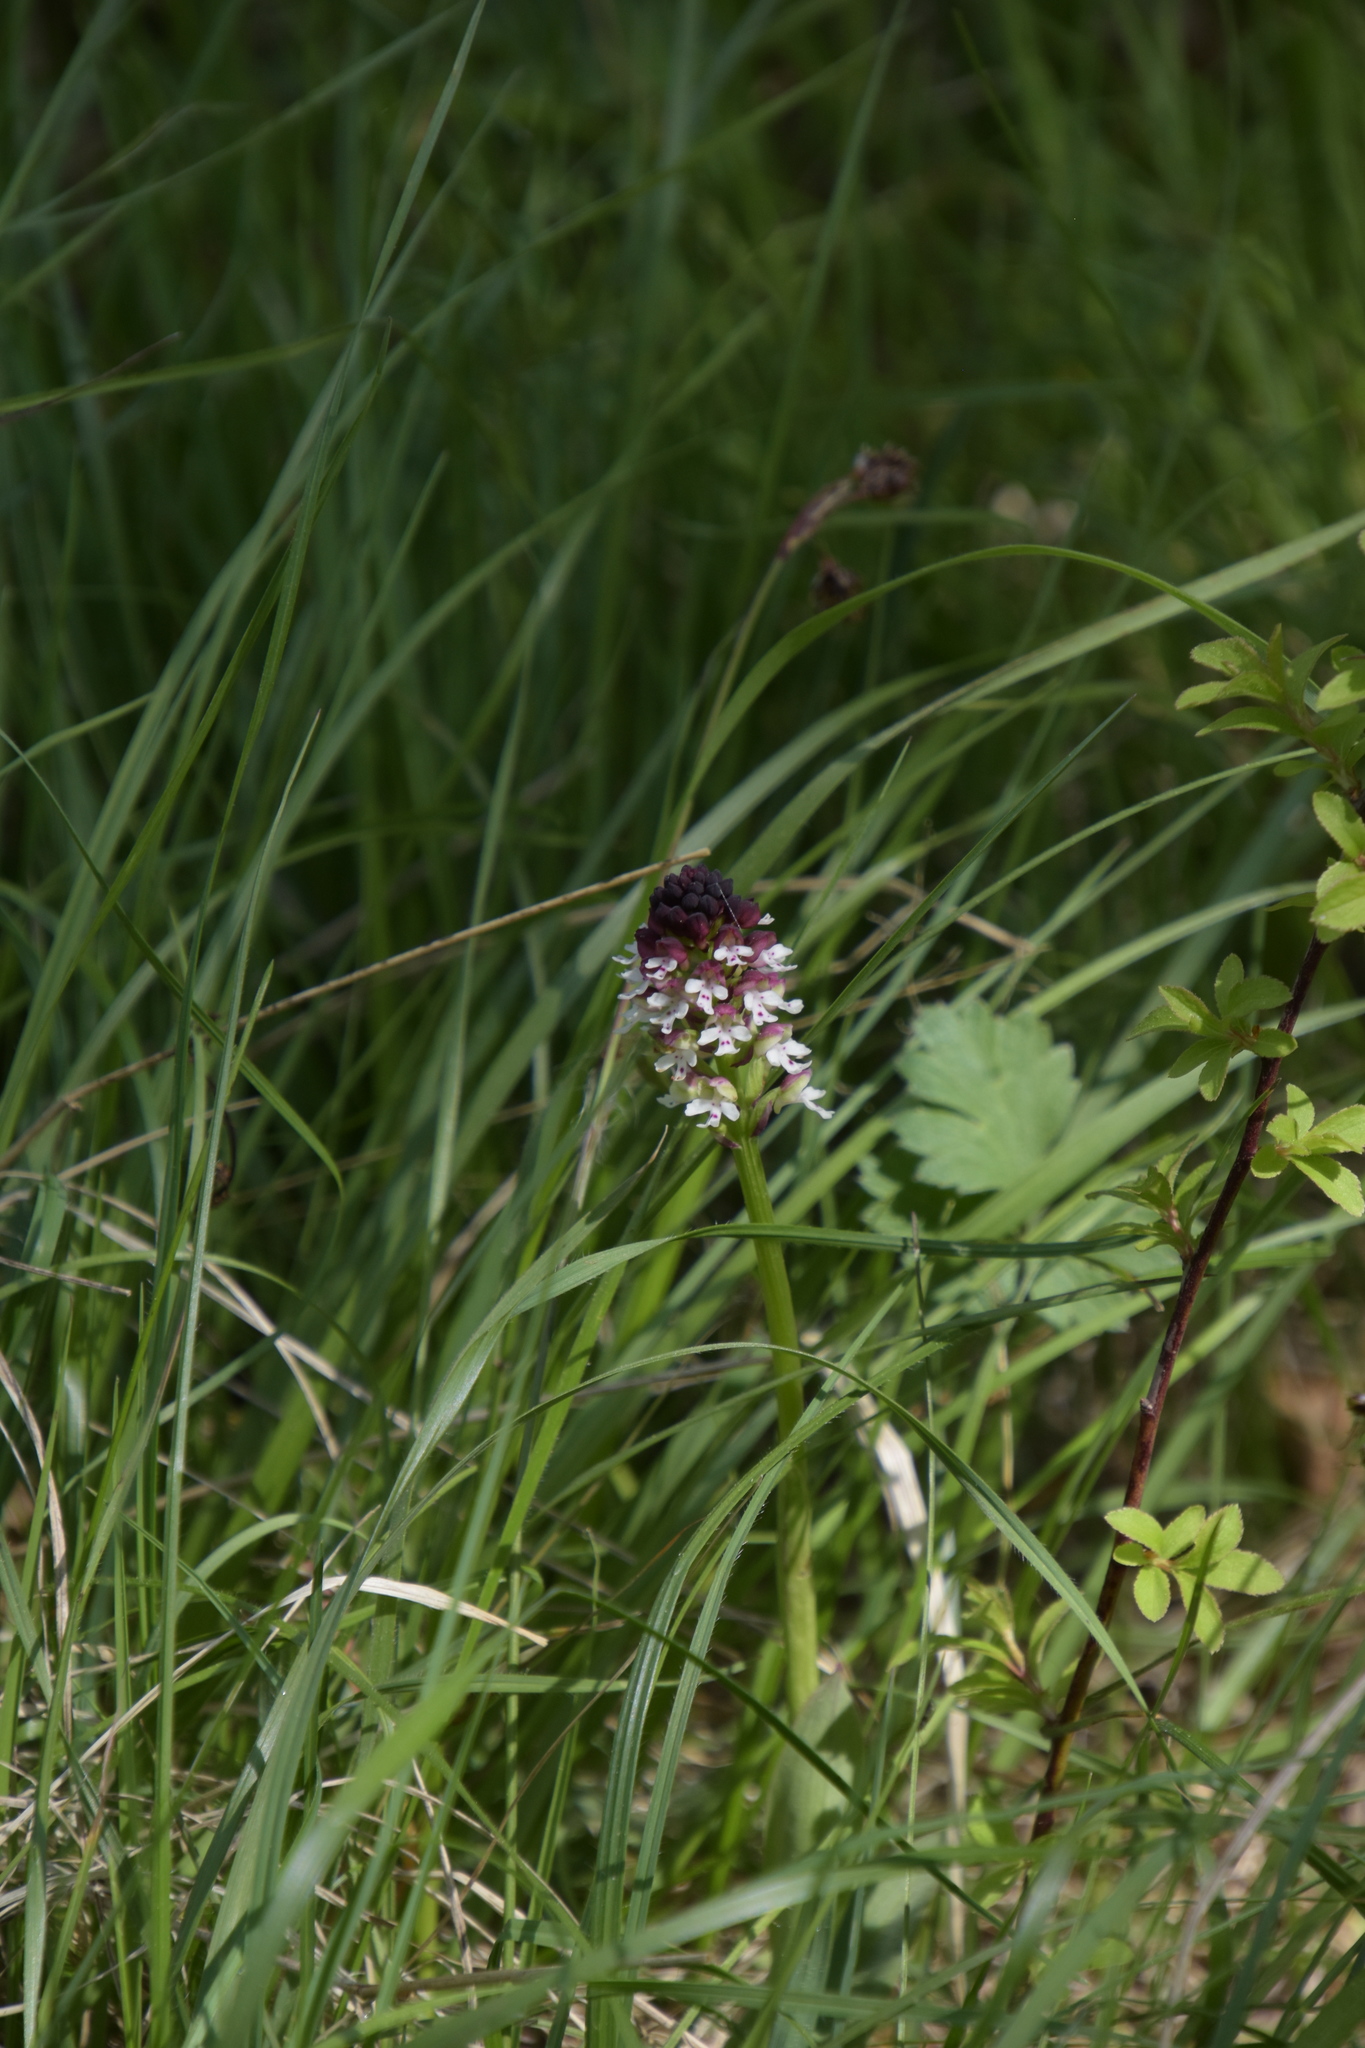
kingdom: Plantae
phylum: Tracheophyta
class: Liliopsida
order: Asparagales
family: Orchidaceae
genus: Neotinea
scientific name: Neotinea ustulata
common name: Burnt orchid
